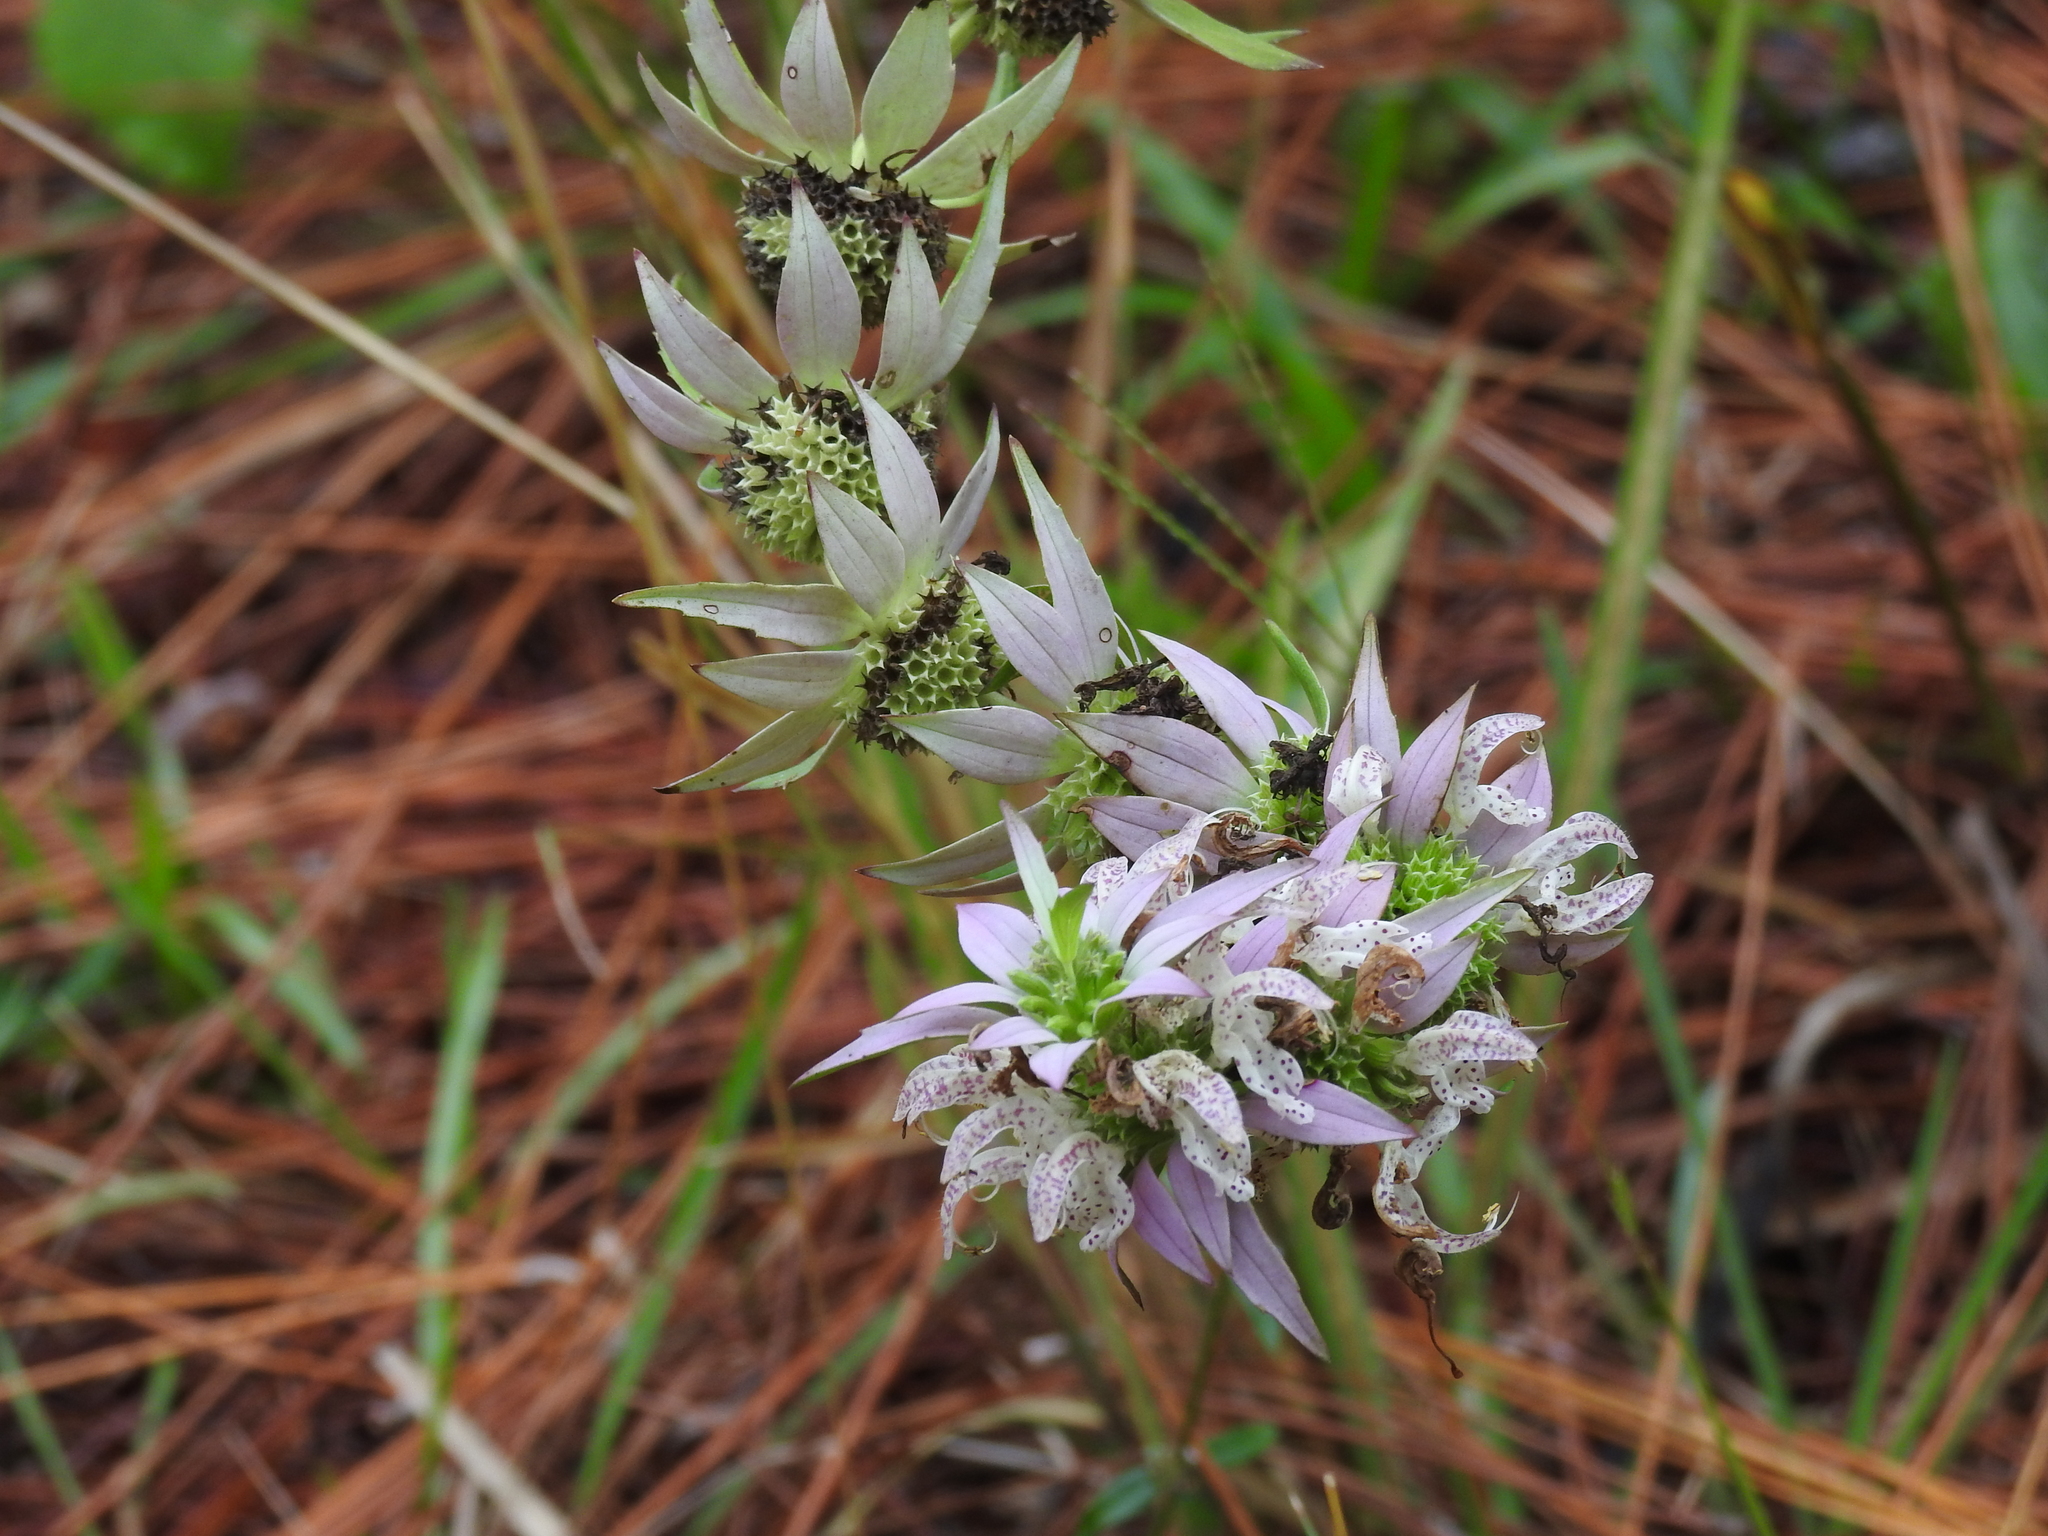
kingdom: Plantae
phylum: Tracheophyta
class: Magnoliopsida
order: Lamiales
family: Lamiaceae
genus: Monarda
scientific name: Monarda punctata
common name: Dotted monarda
